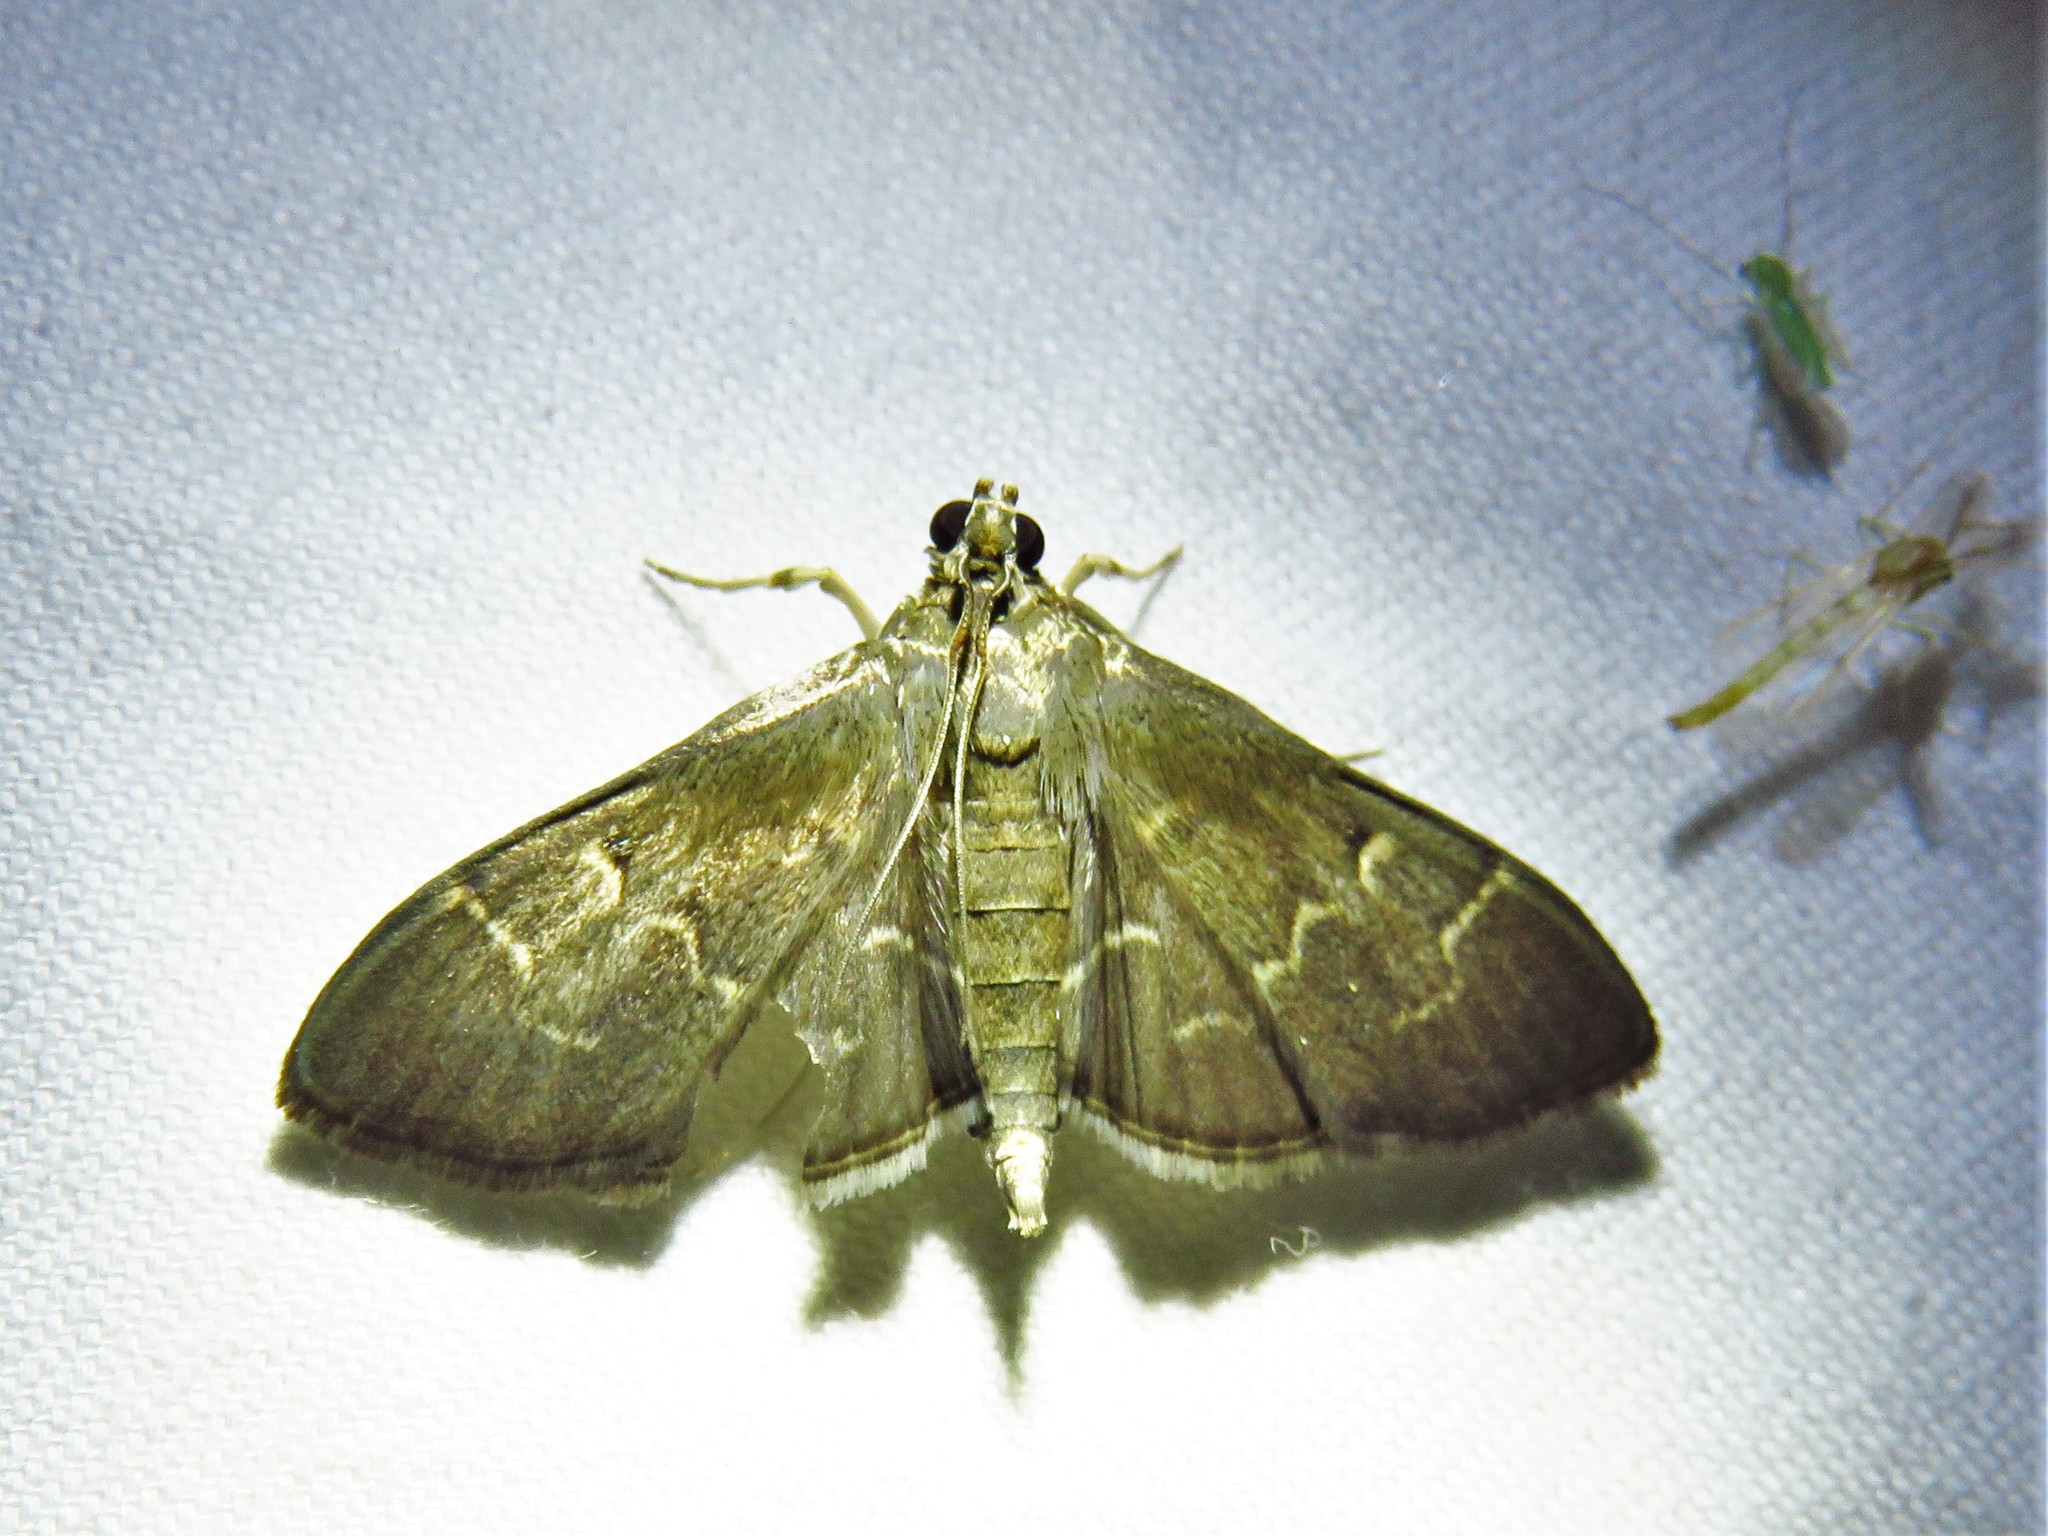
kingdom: Animalia
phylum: Arthropoda
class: Insecta
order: Lepidoptera
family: Crambidae
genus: Pilocrocis
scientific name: Pilocrocis ramentalis
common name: Scraped pilocrocis
